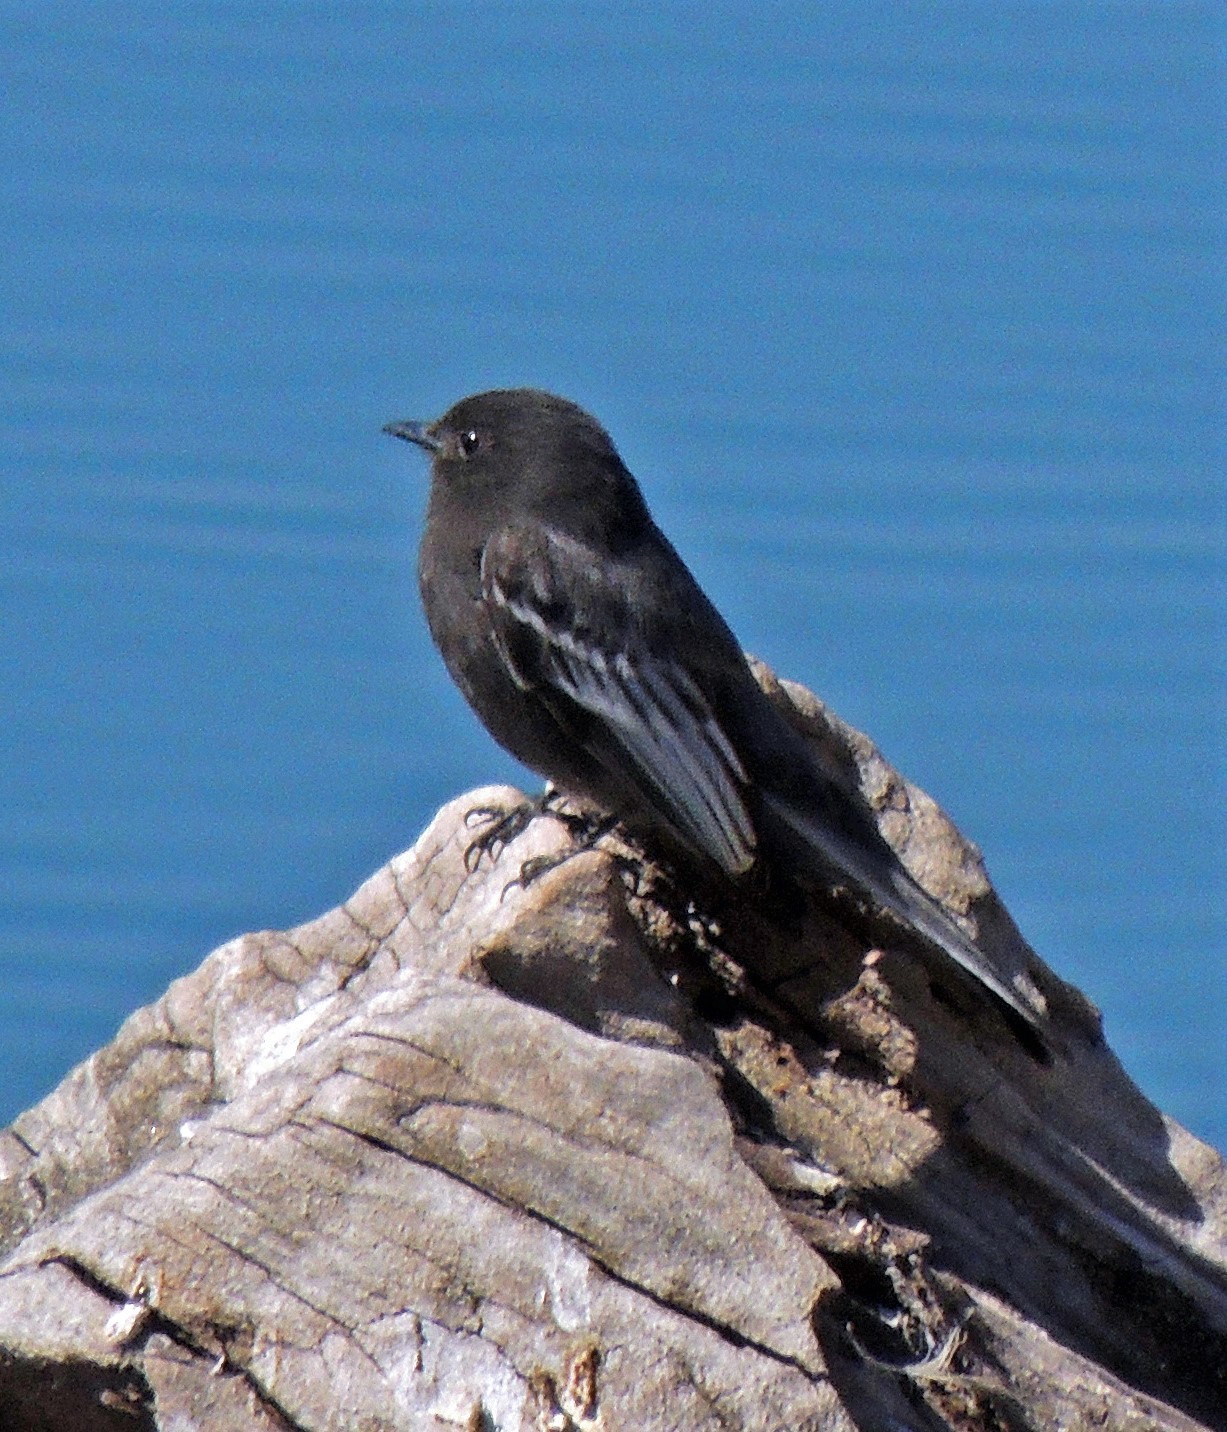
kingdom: Animalia
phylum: Chordata
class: Aves
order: Passeriformes
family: Tyrannidae
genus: Sayornis
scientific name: Sayornis nigricans
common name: Black phoebe
